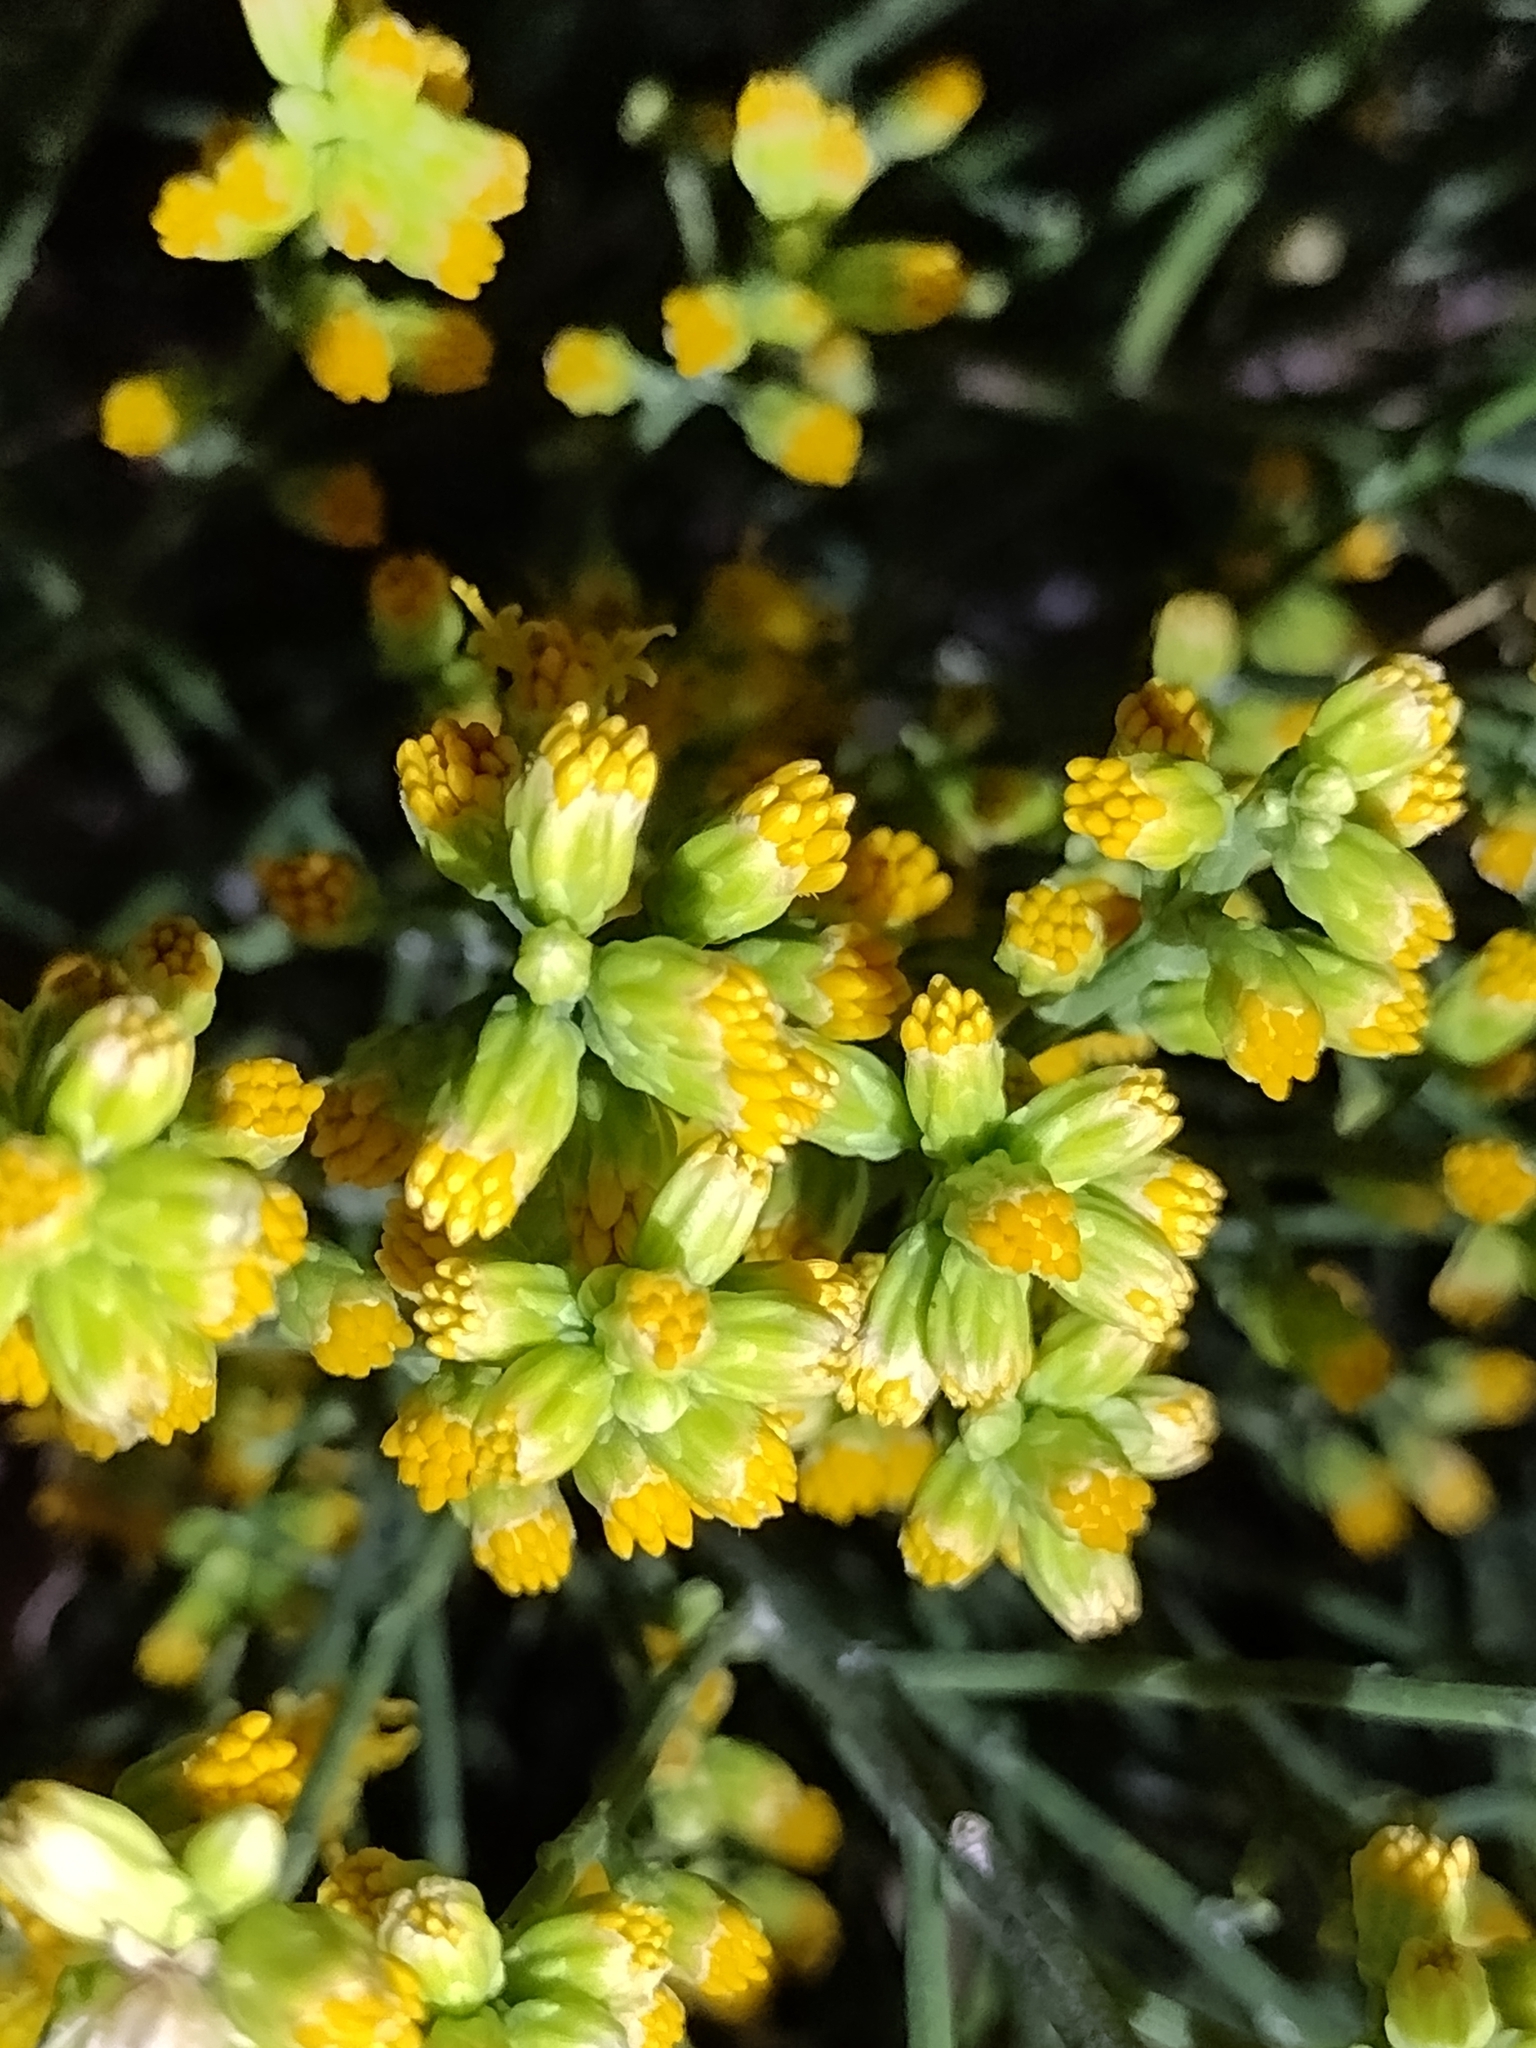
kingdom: Plantae
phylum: Tracheophyta
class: Magnoliopsida
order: Asterales
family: Asteraceae
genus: Lepidospartum
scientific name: Lepidospartum squamatum
